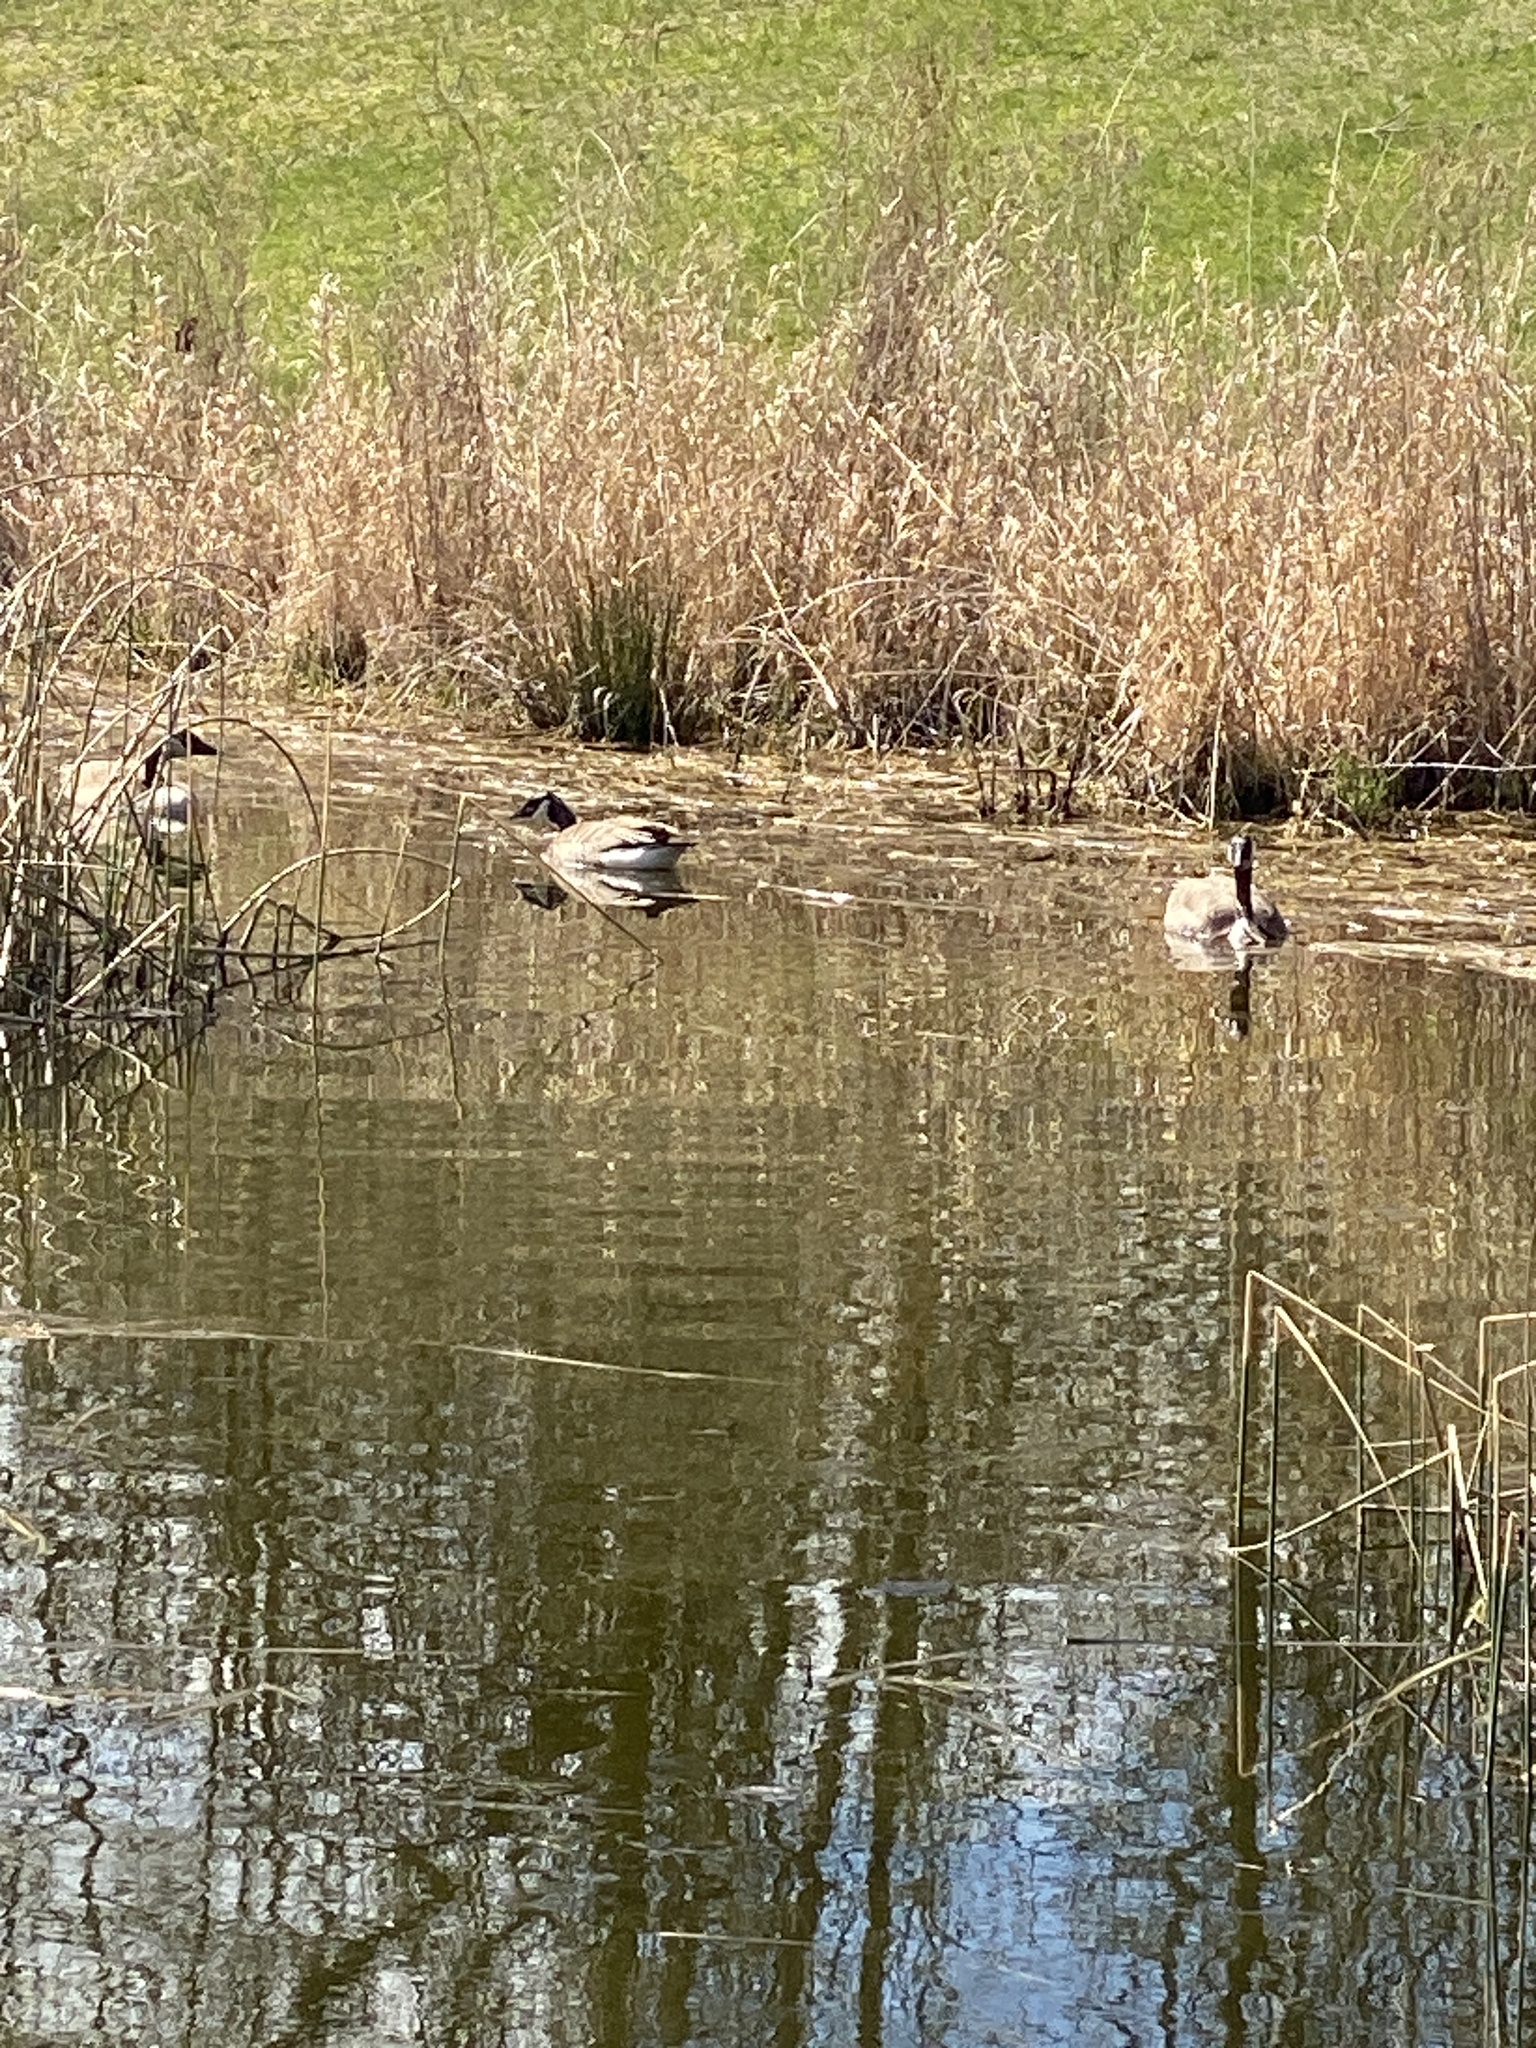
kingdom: Animalia
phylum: Chordata
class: Aves
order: Anseriformes
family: Anatidae
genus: Branta
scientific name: Branta canadensis
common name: Canada goose
